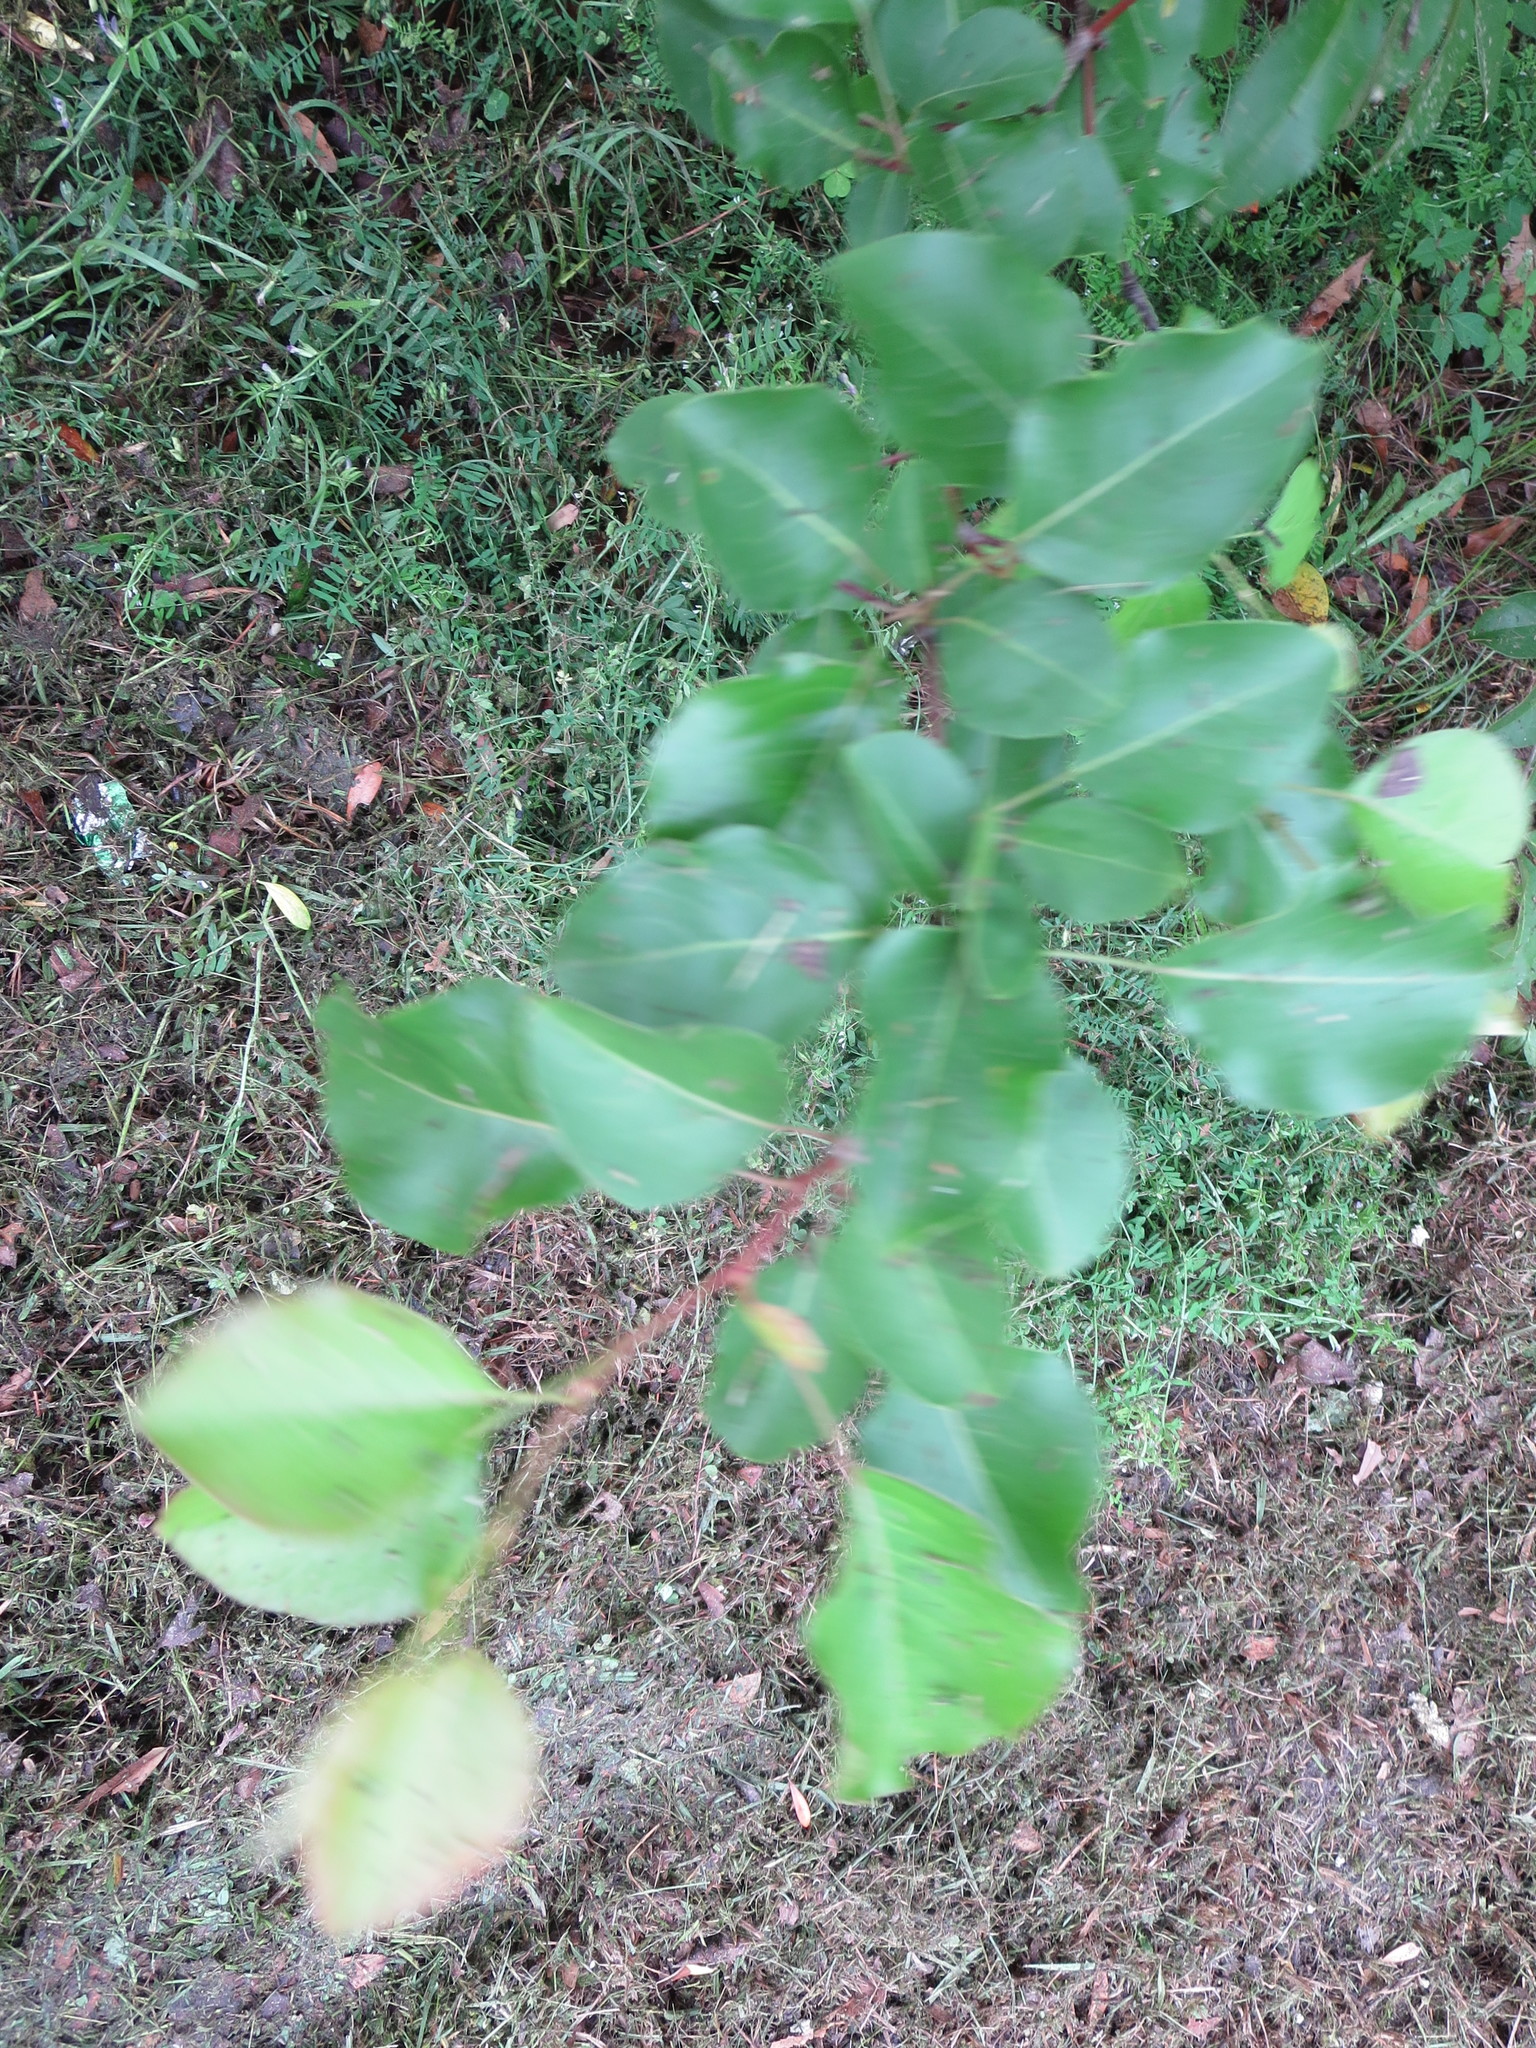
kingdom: Plantae
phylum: Tracheophyta
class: Magnoliopsida
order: Rosales
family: Rosaceae
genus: Pyrus
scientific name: Pyrus calleryana
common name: Callery pear
